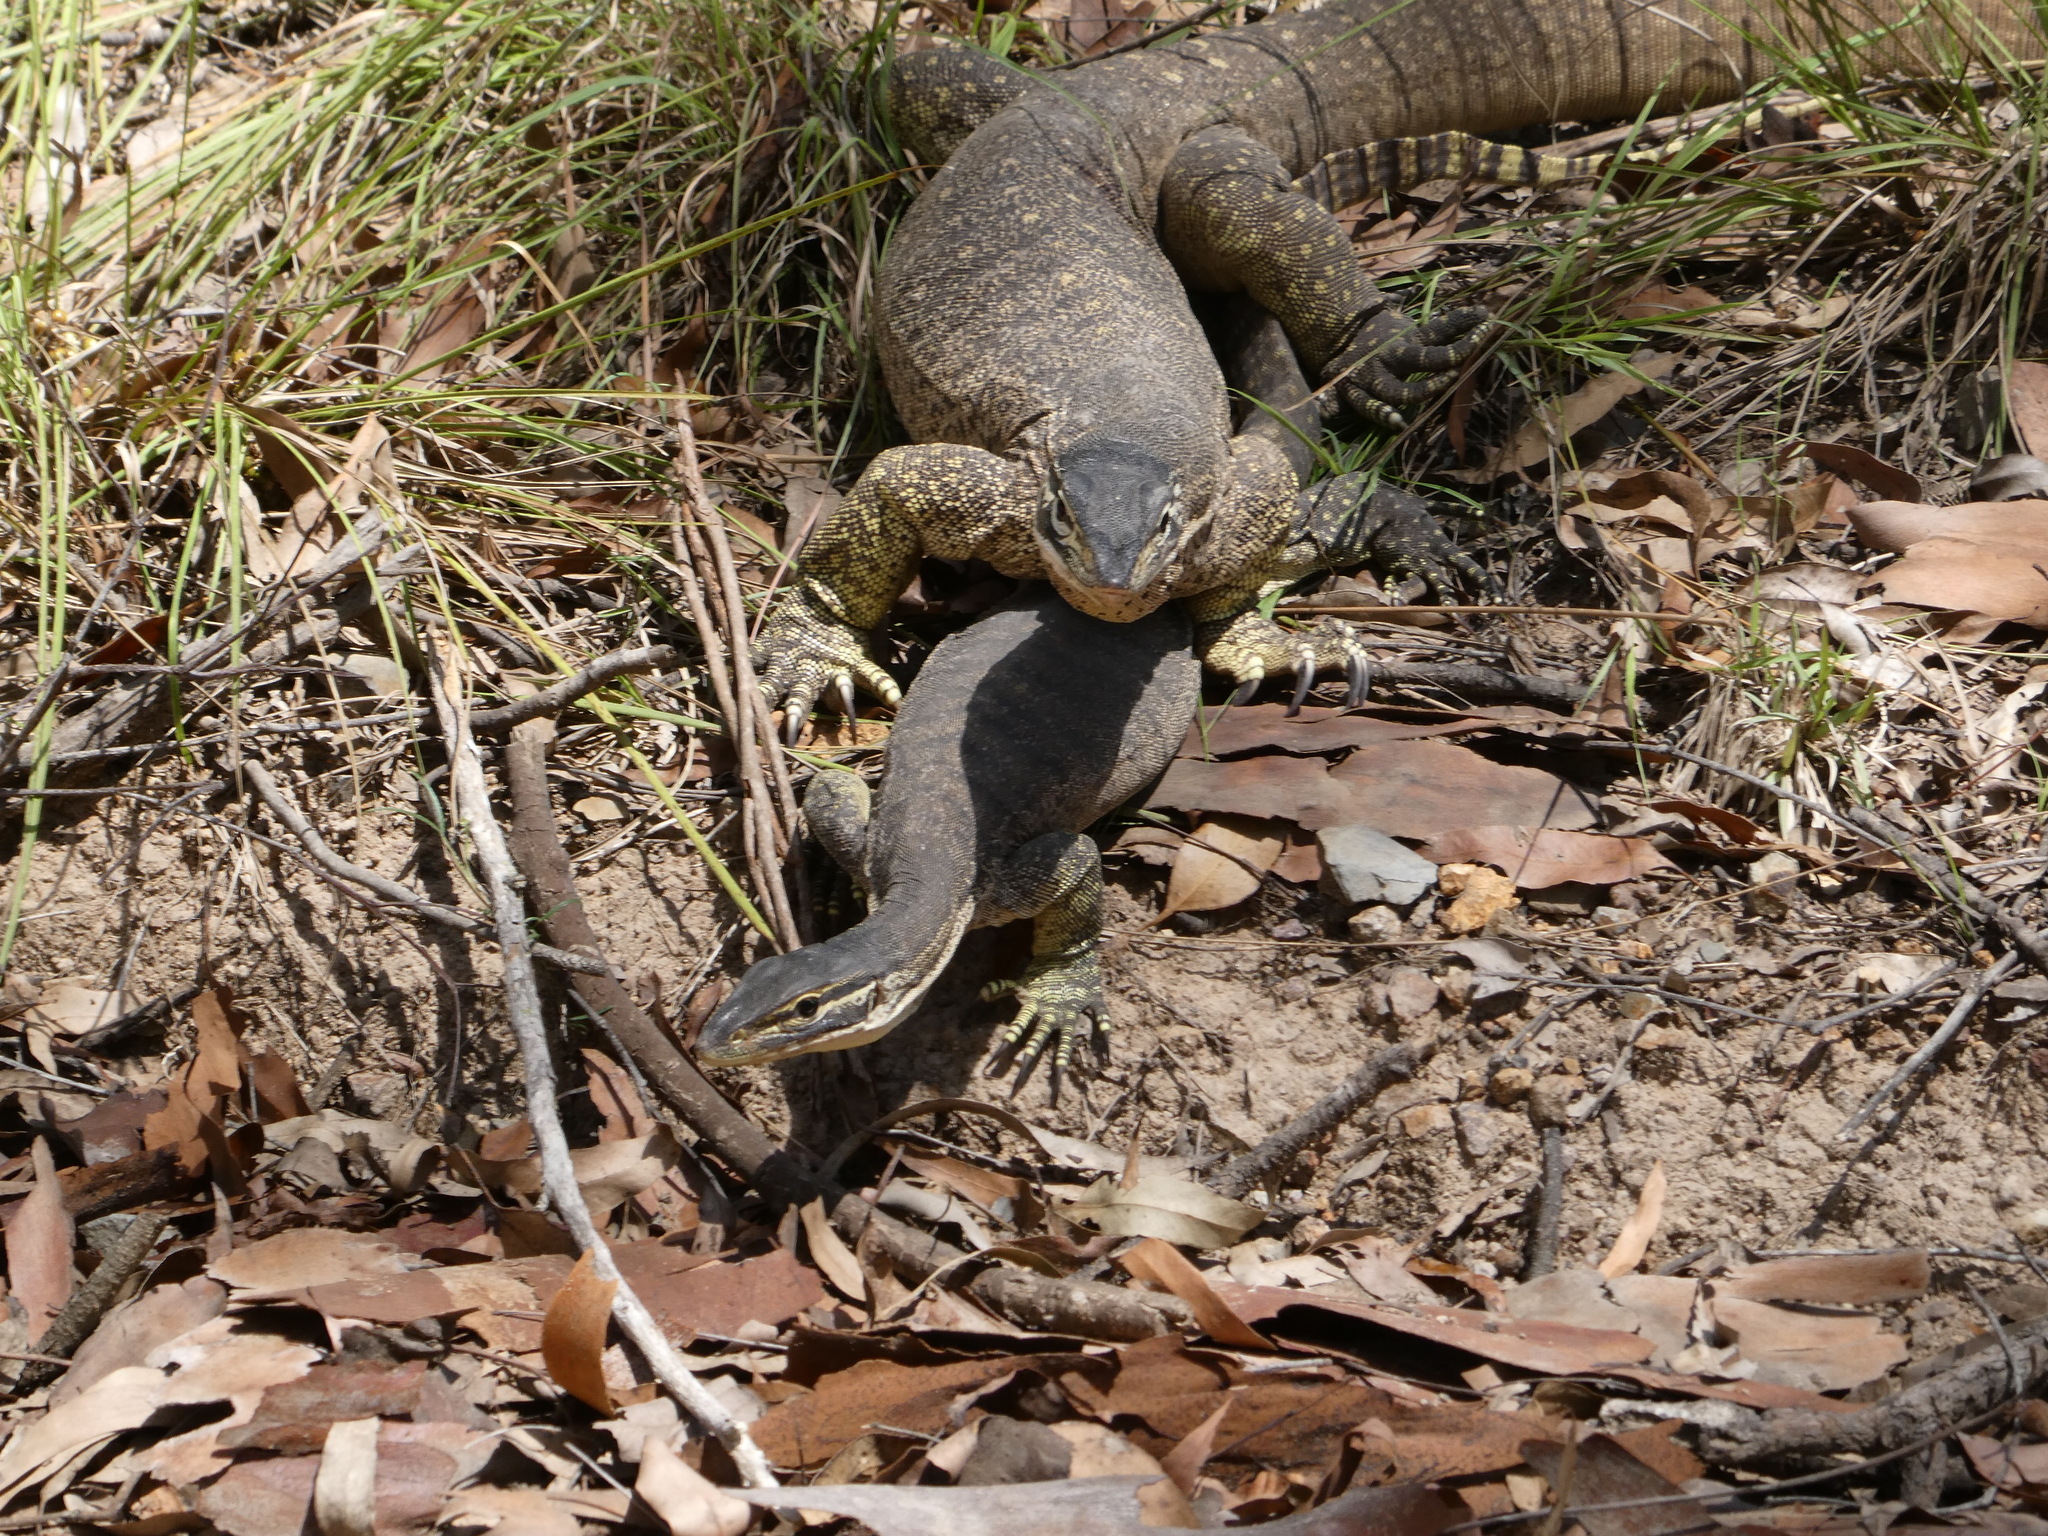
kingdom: Animalia
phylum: Chordata
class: Squamata
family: Varanidae
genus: Varanus
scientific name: Varanus panoptes
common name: Yellow-spotted monitor
